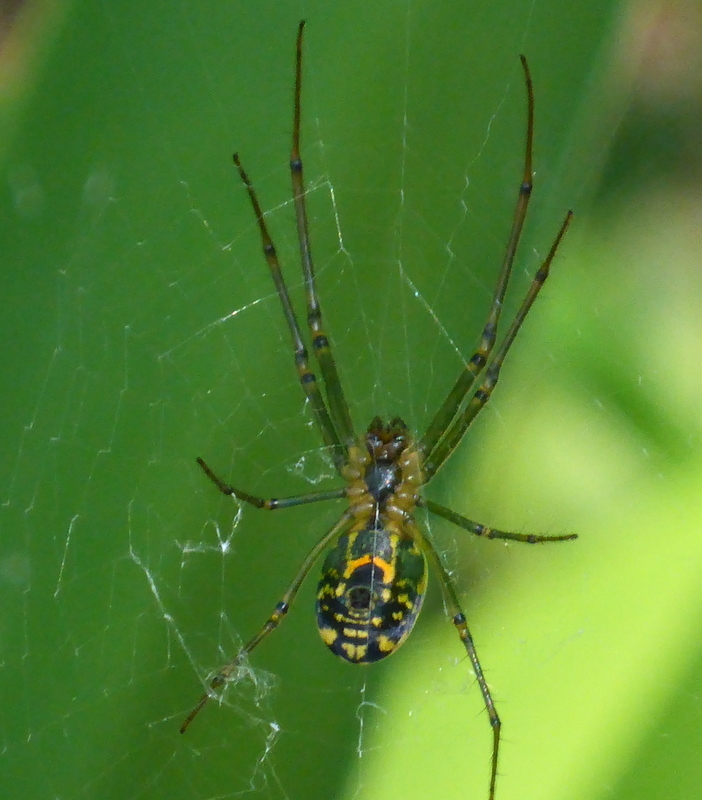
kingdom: Animalia
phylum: Arthropoda
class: Arachnida
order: Araneae
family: Tetragnathidae
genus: Leucauge
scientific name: Leucauge venusta
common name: Longjawed orb weavers
